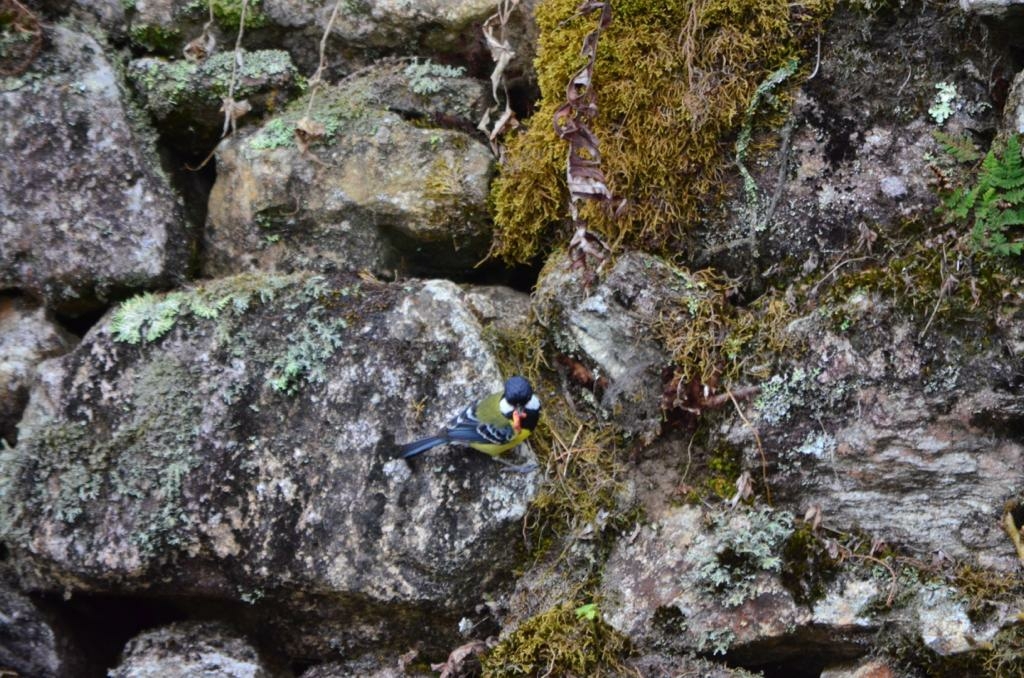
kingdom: Animalia
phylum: Chordata
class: Aves
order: Passeriformes
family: Paridae
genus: Parus
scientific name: Parus monticolus
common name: Green-backed tit
